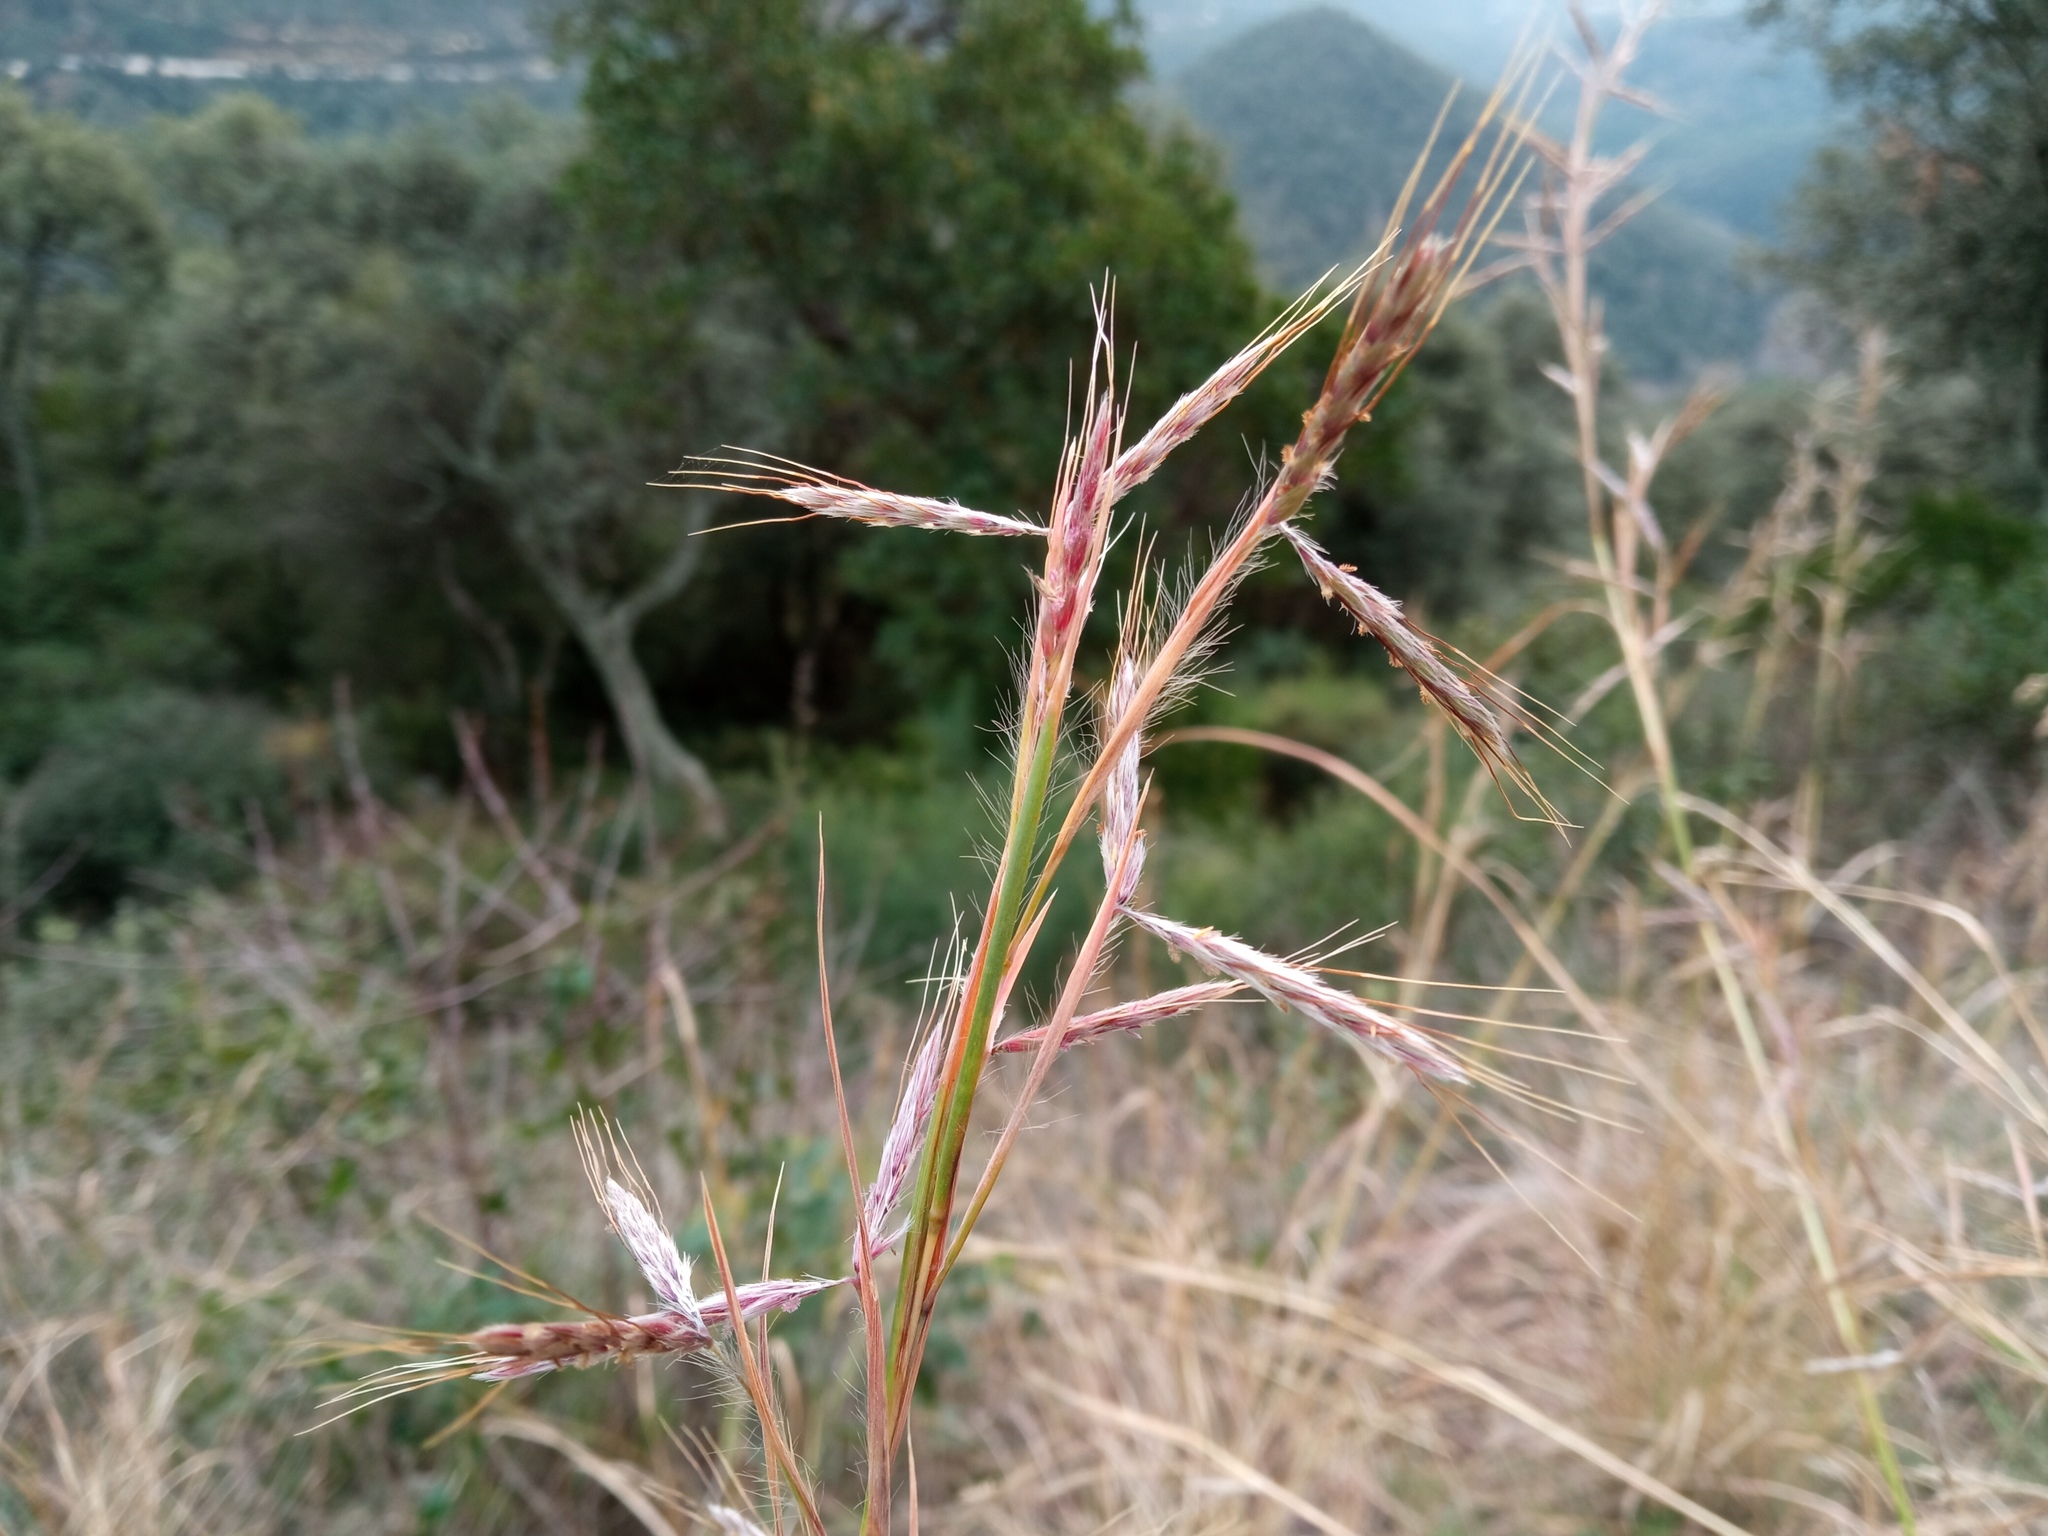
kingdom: Plantae
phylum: Tracheophyta
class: Liliopsida
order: Poales
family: Poaceae
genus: Hyparrhenia
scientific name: Hyparrhenia hirta
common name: Thatching grass
